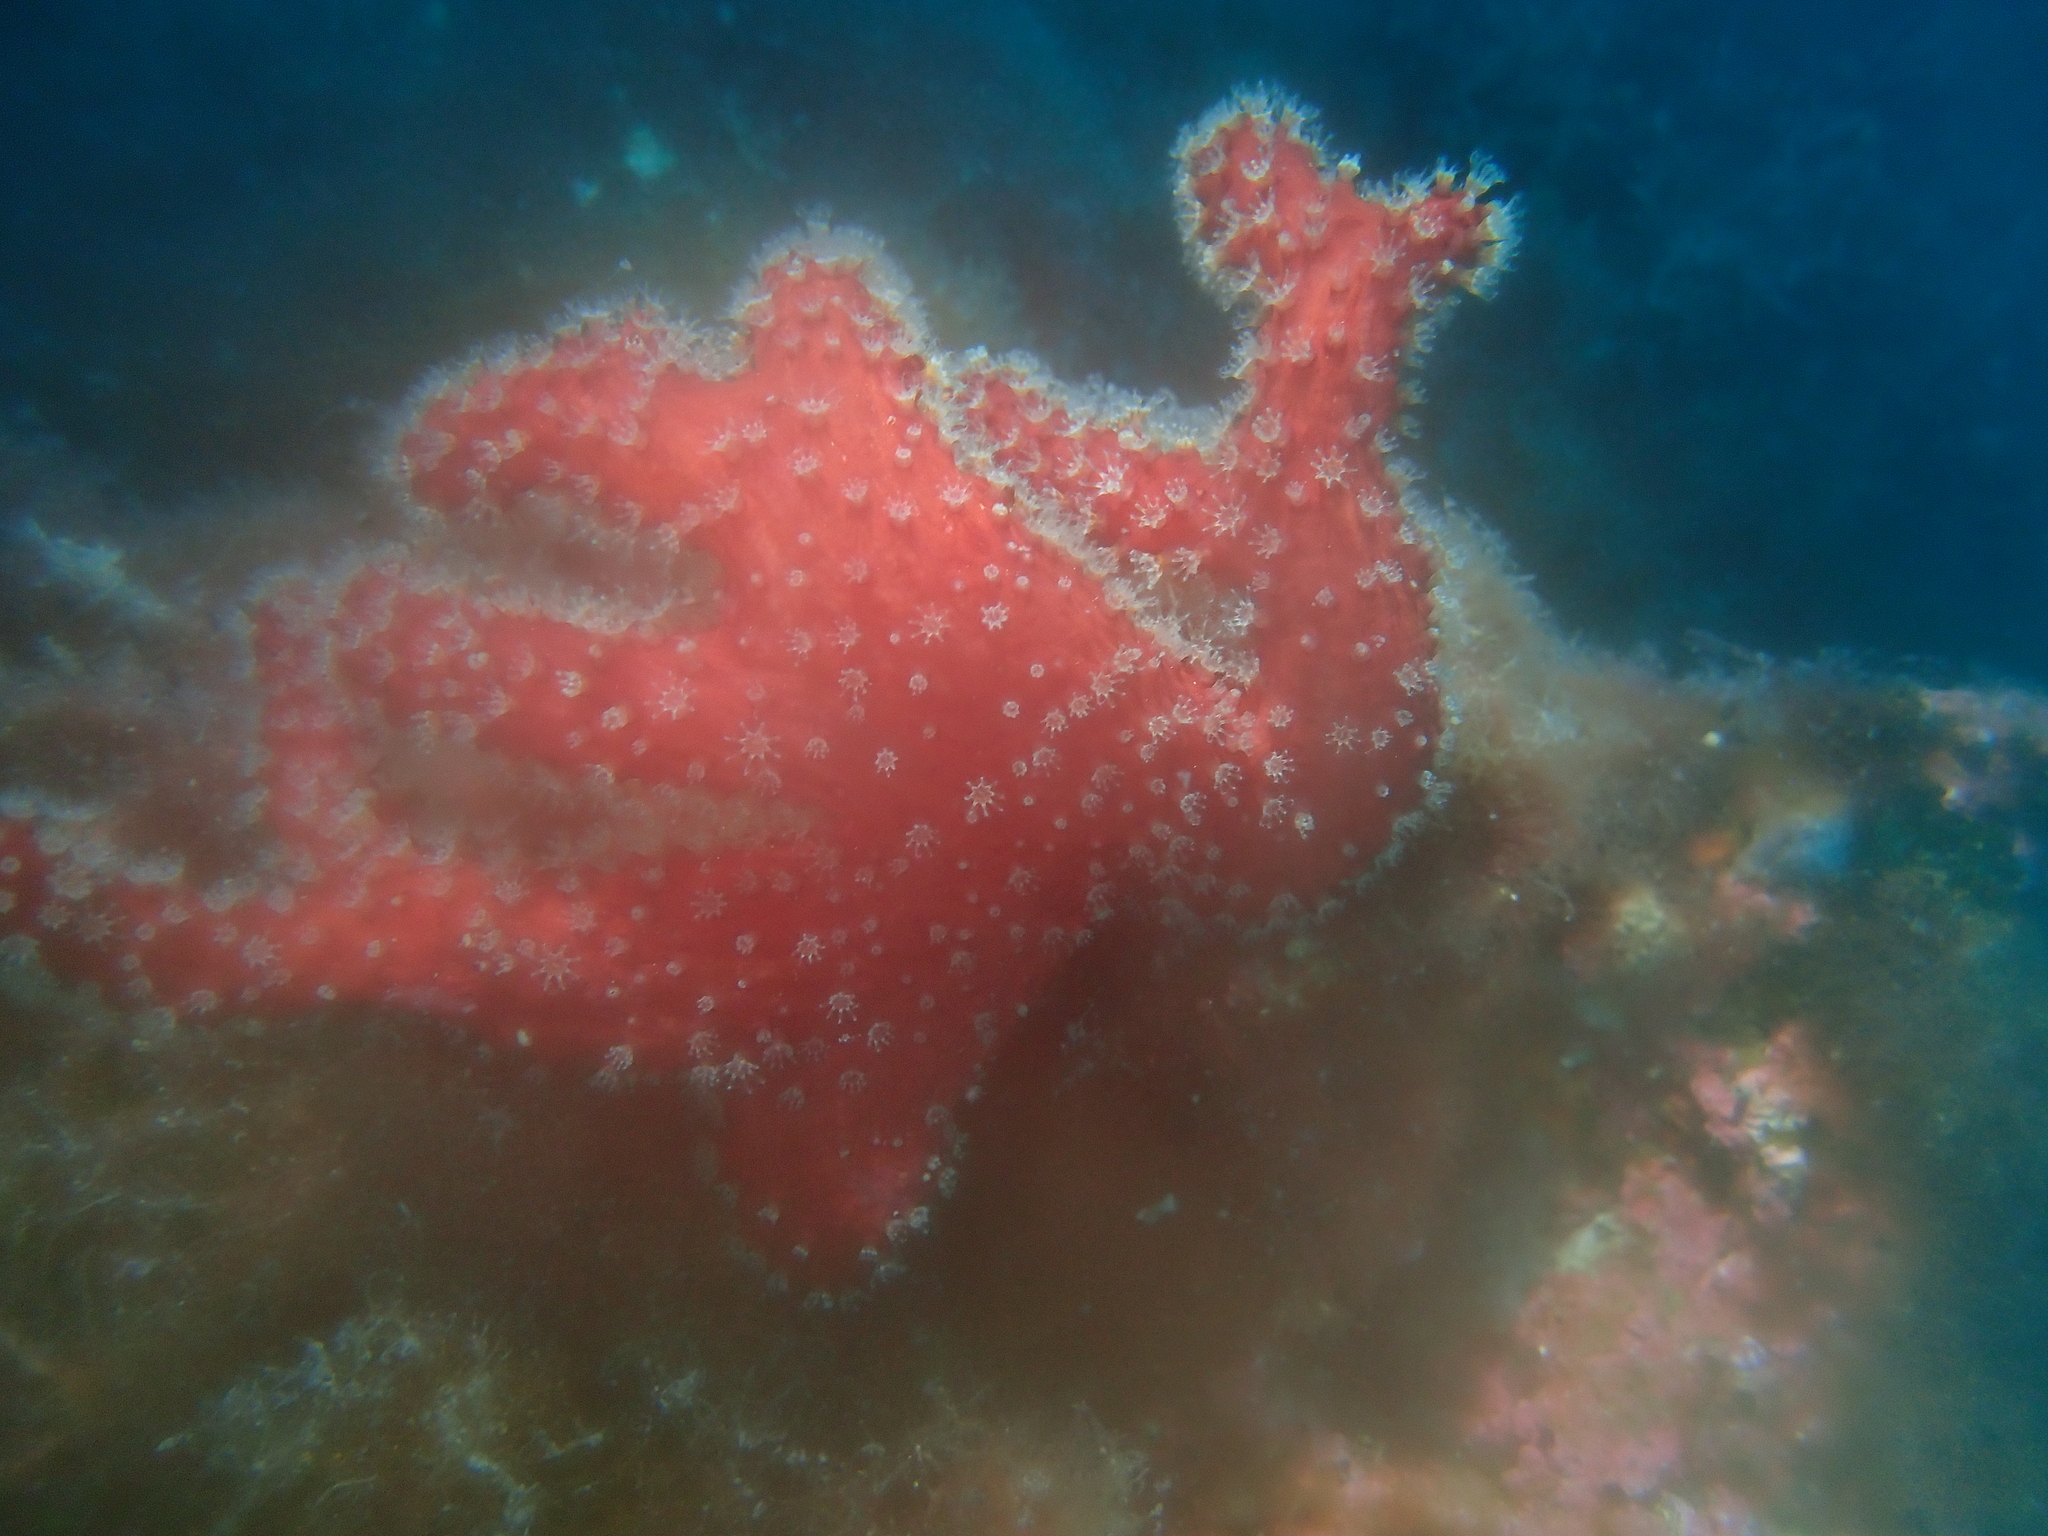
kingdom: Animalia
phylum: Cnidaria
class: Anthozoa
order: Malacalcyonacea
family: Alcyoniidae
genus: Alcyonium
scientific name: Alcyonium acaule
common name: Sea finger
